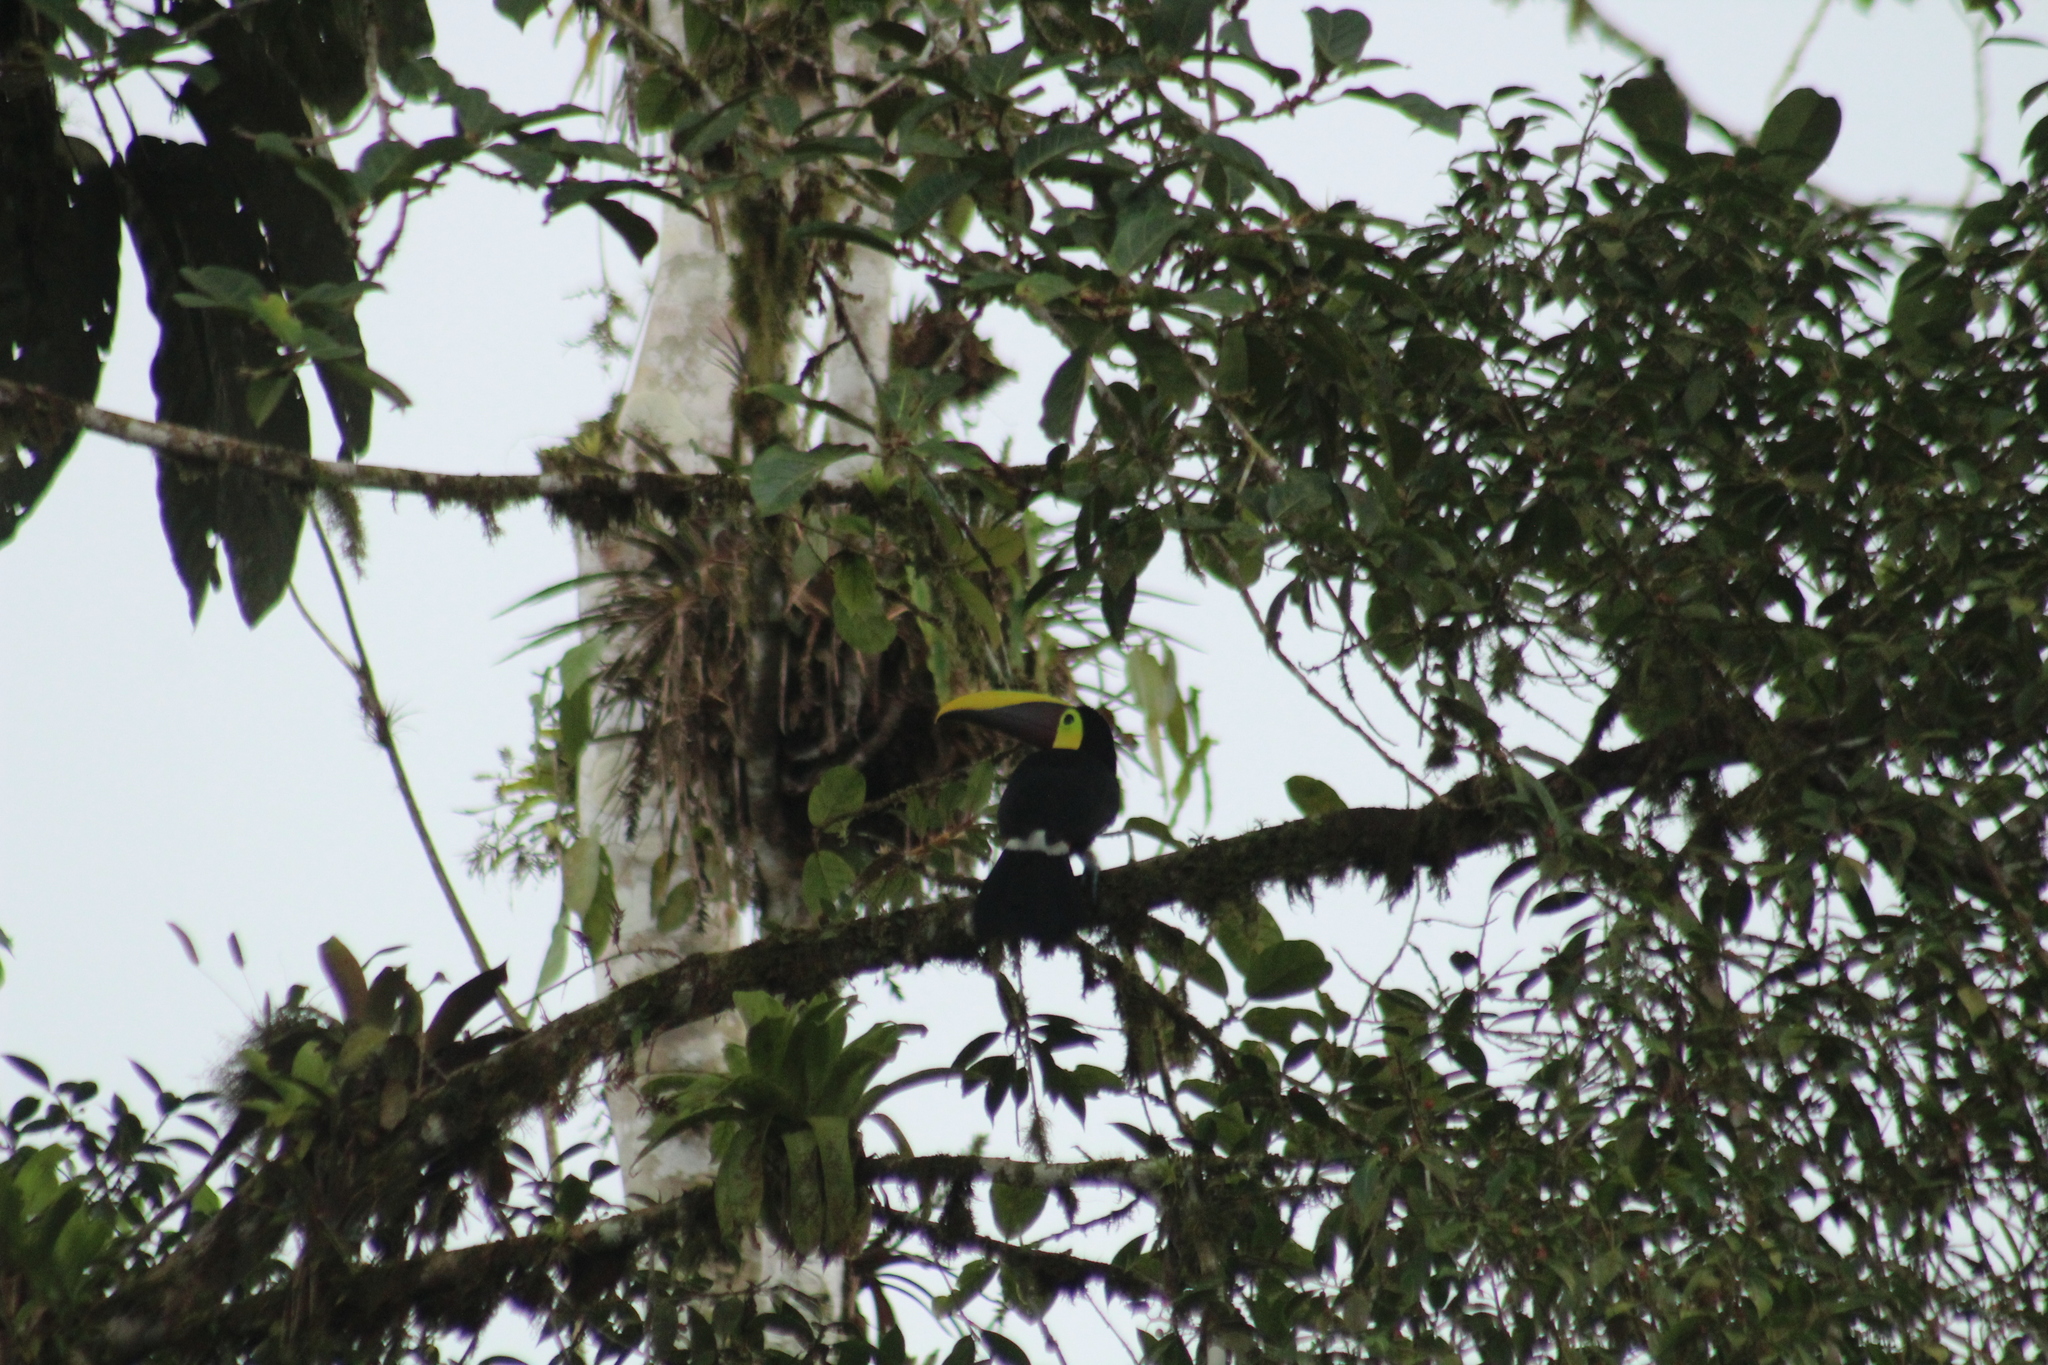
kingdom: Animalia
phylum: Chordata
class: Aves
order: Piciformes
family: Ramphastidae
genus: Ramphastos
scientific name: Ramphastos ambiguus
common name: Yellow-throated toucan
